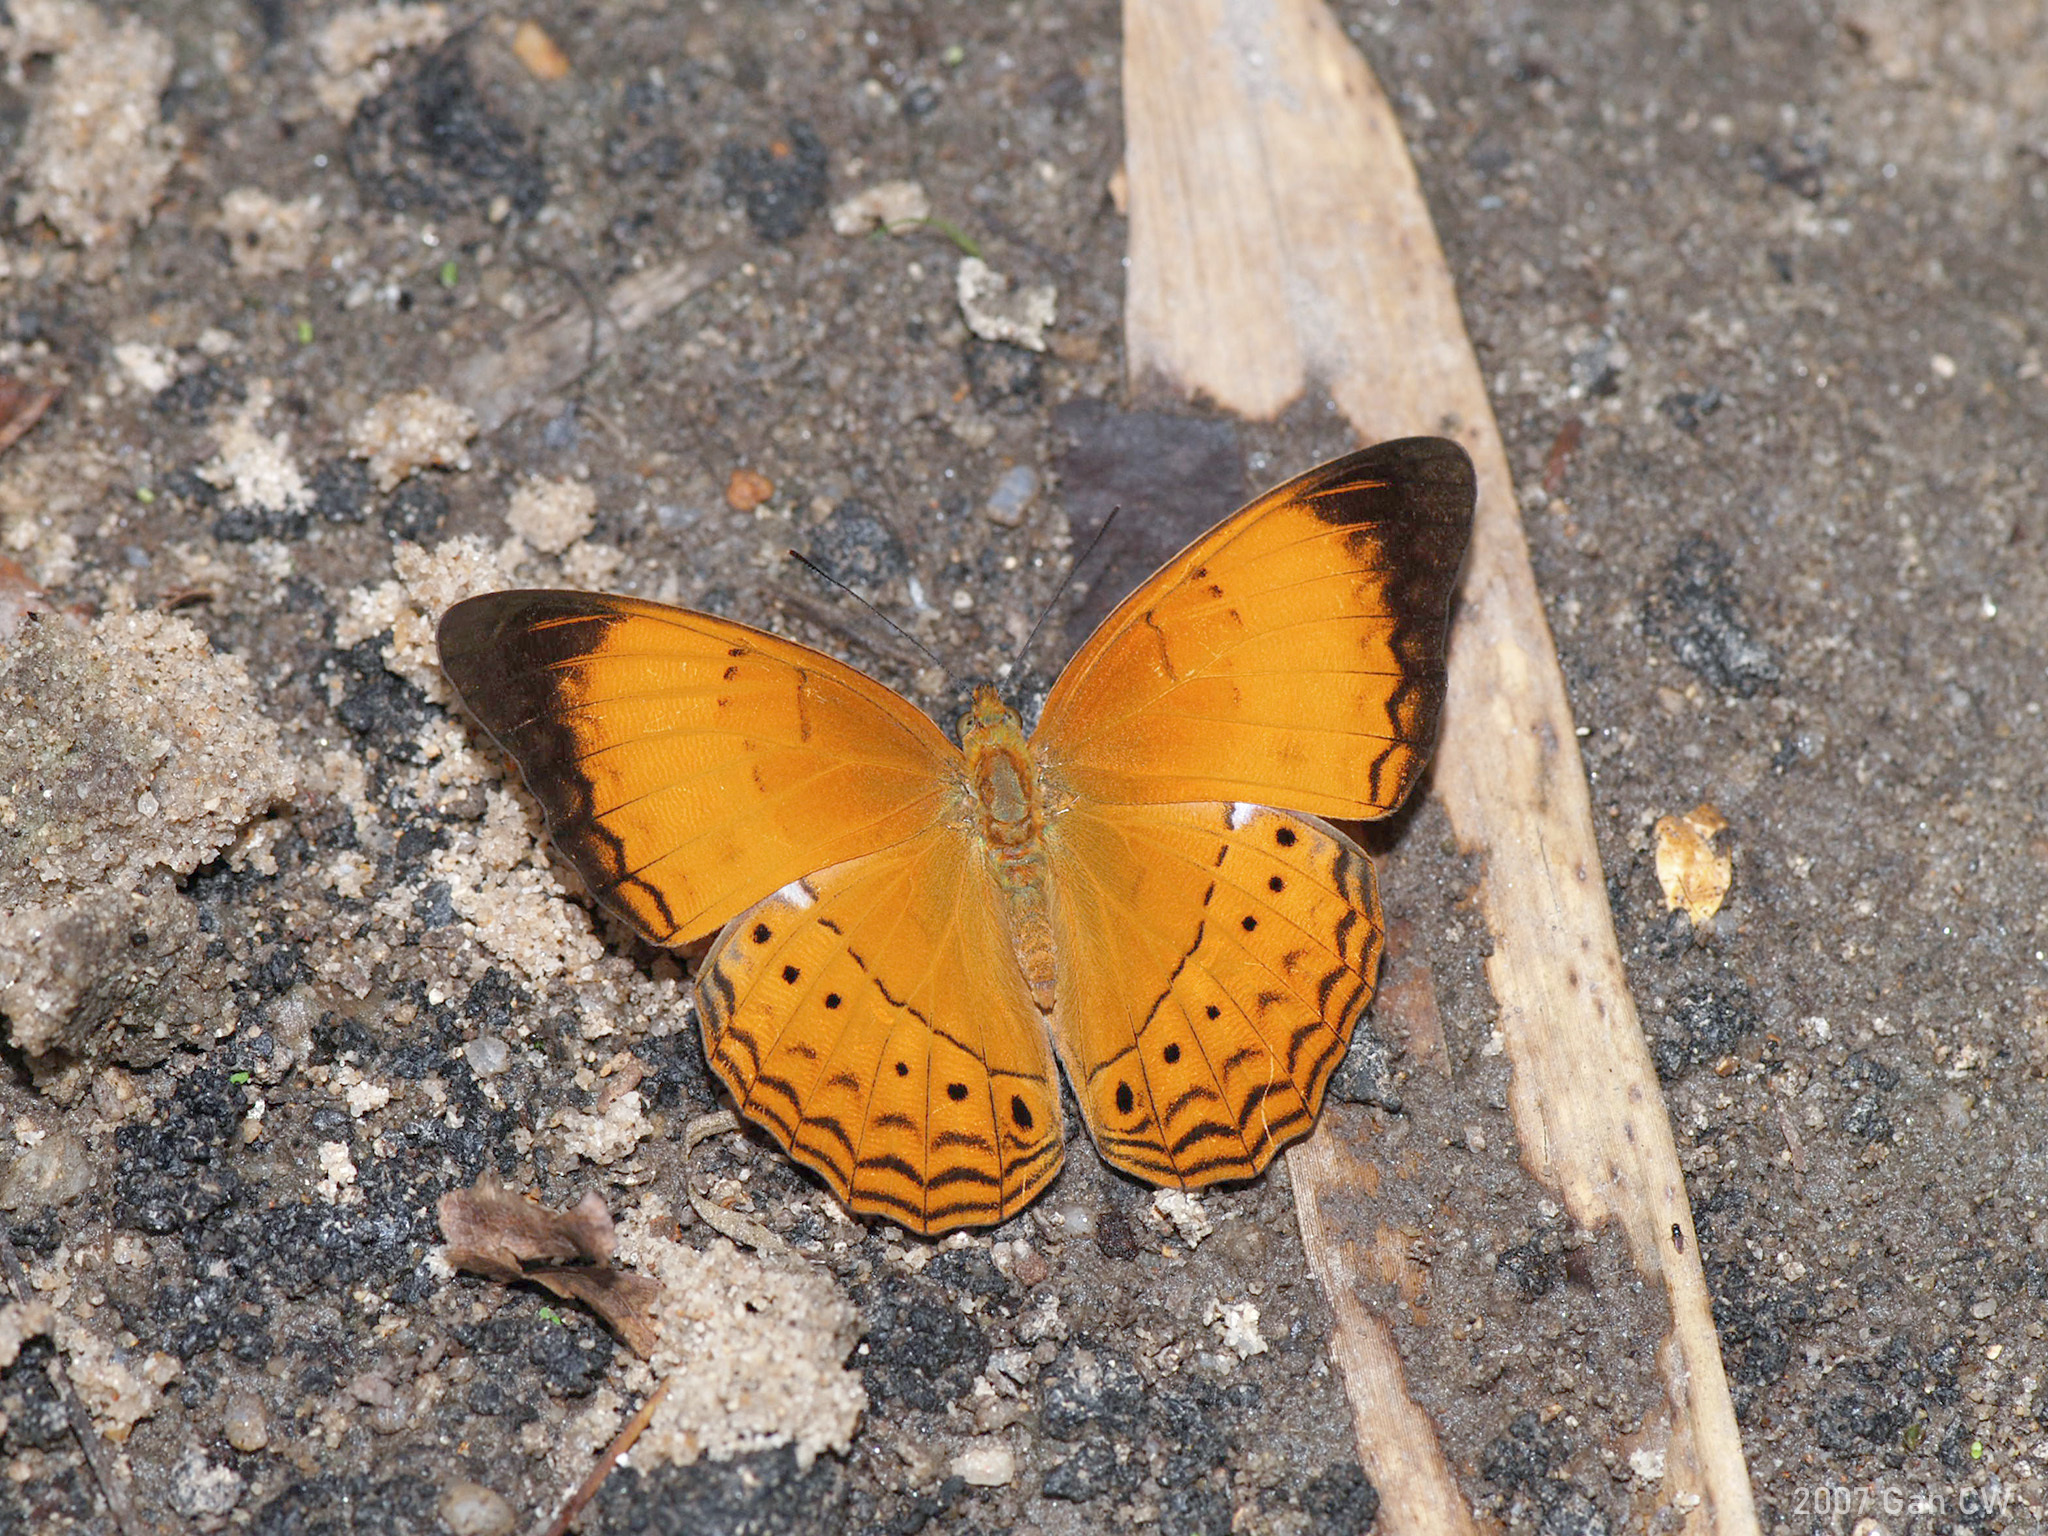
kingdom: Animalia
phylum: Arthropoda
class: Insecta
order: Lepidoptera
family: Nymphalidae
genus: Cirrochroa
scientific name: Cirrochroa malaya
